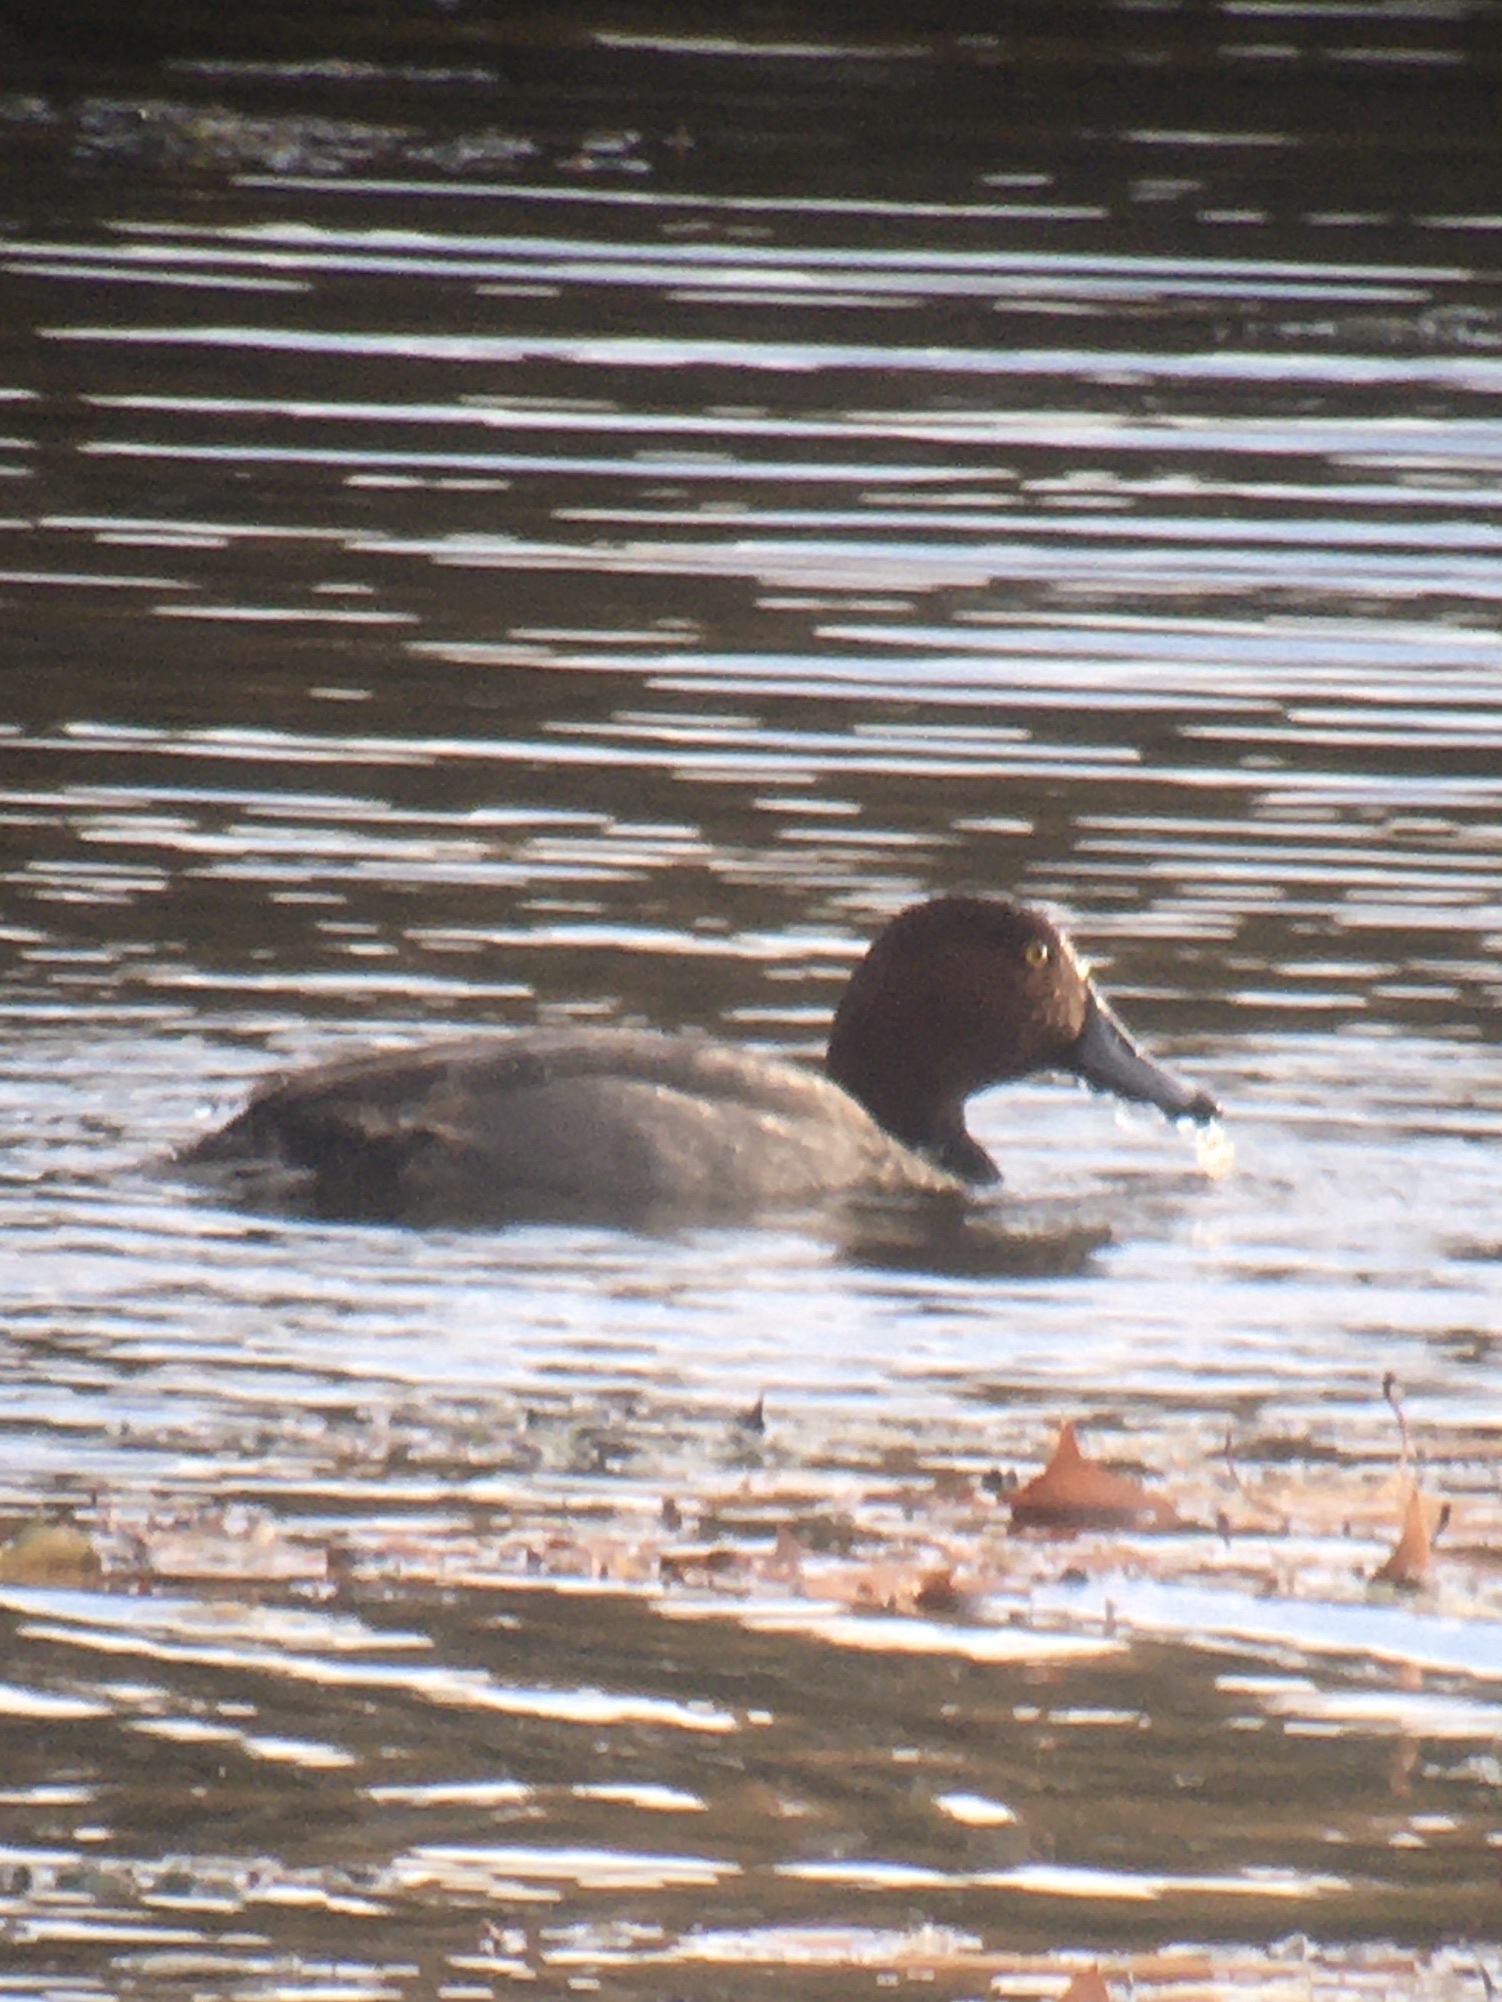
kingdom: Animalia
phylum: Chordata
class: Aves
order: Anseriformes
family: Anatidae
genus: Aythya
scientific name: Aythya americana
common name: Redhead
